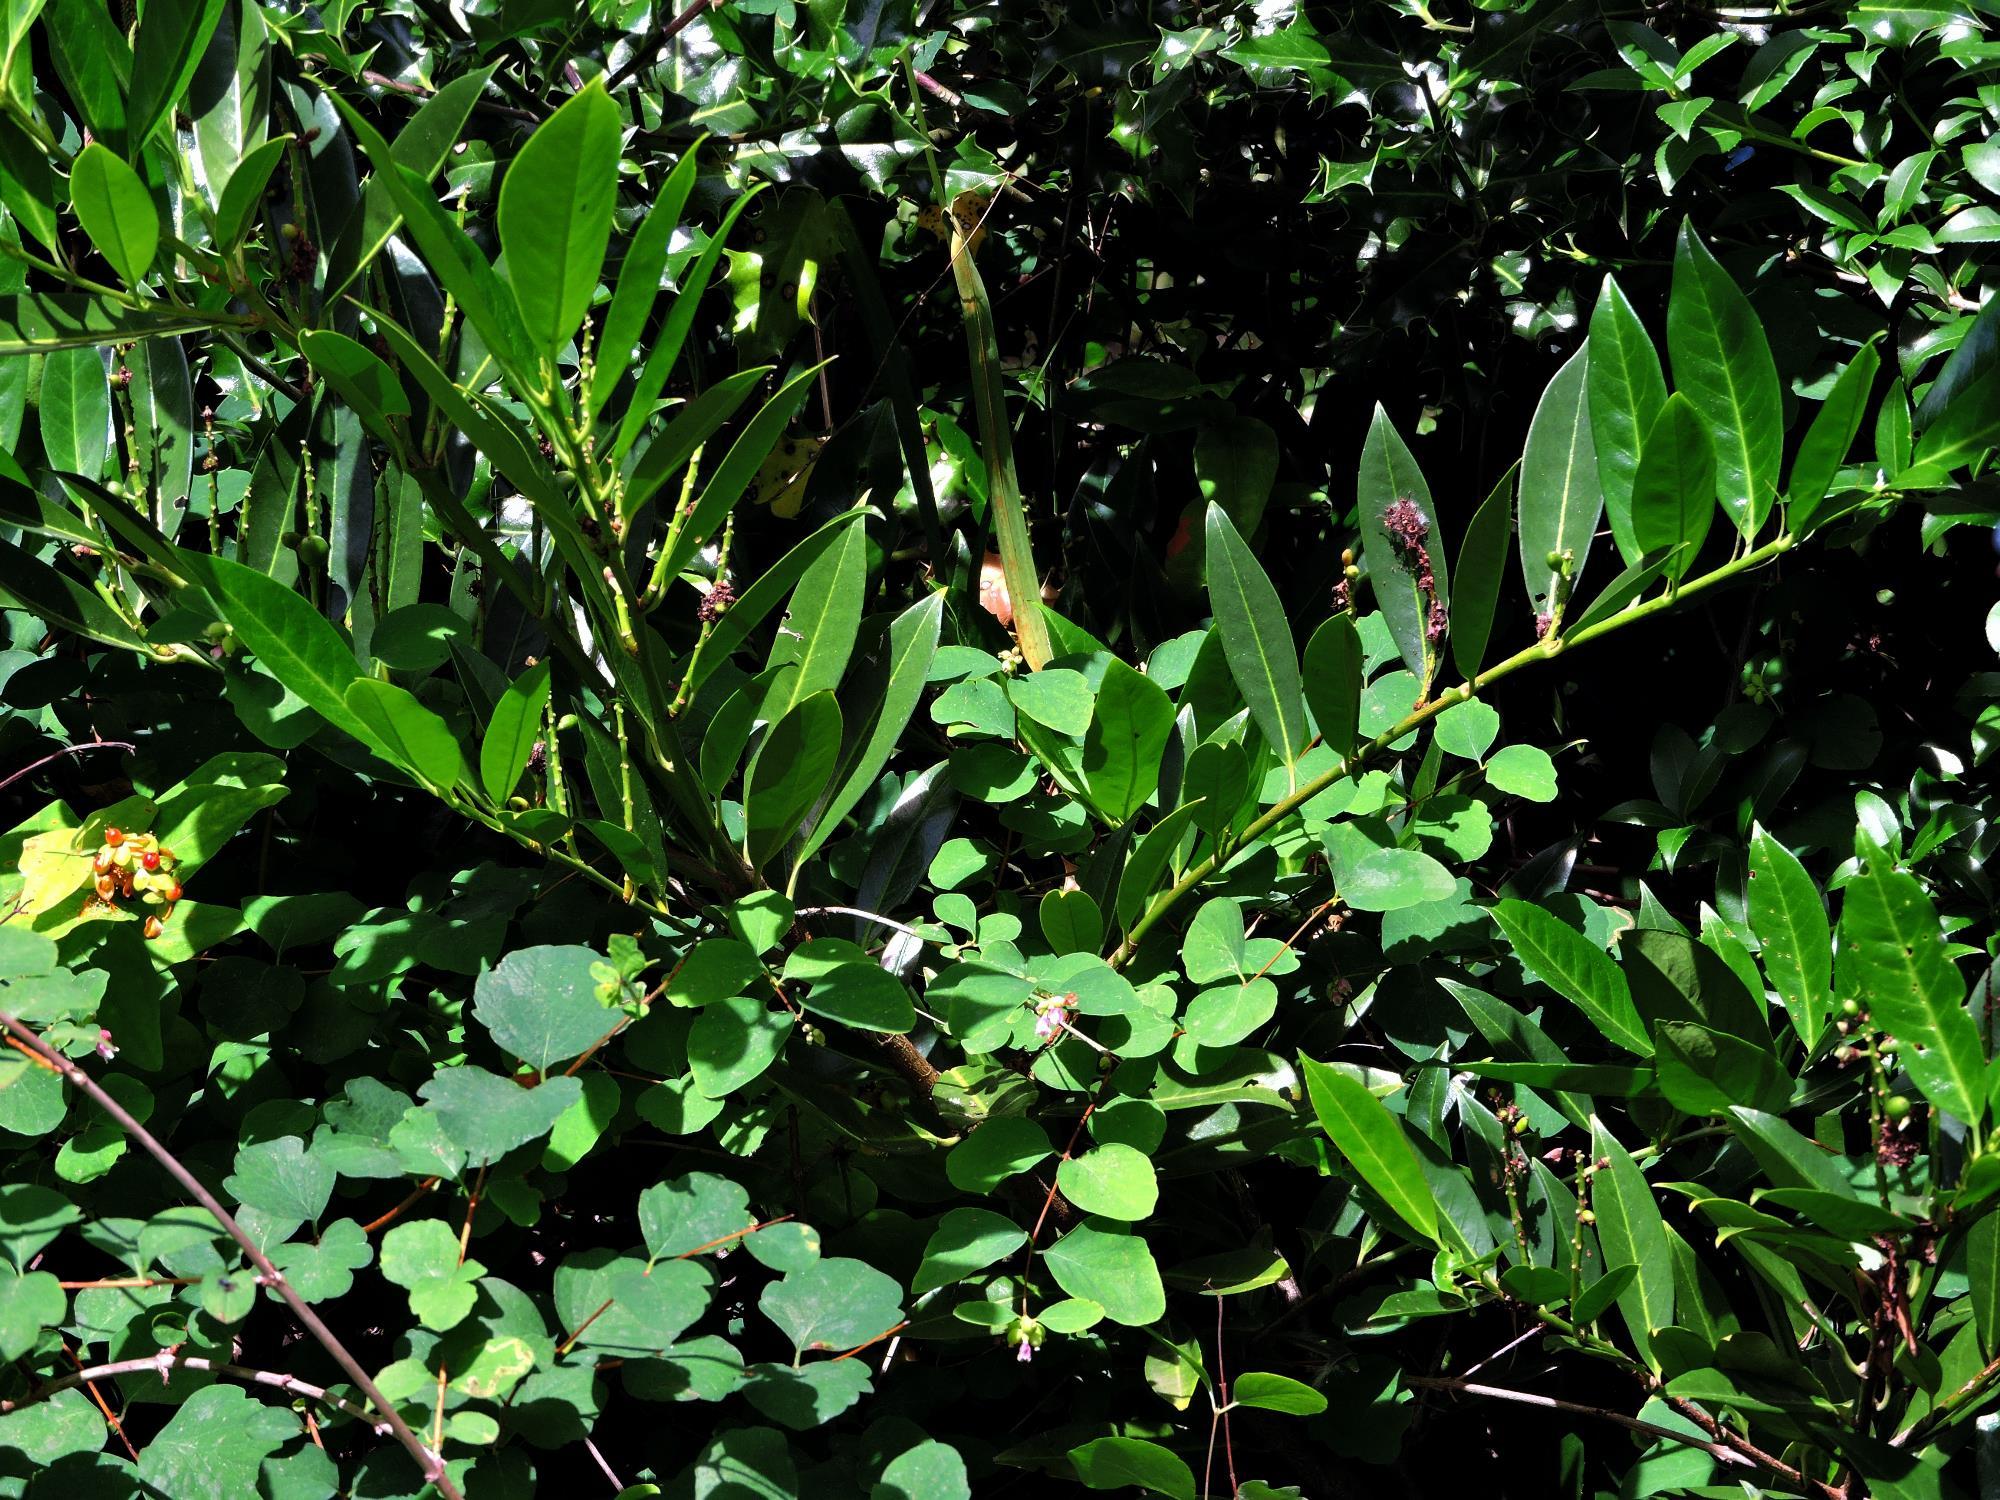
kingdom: Plantae
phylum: Tracheophyta
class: Magnoliopsida
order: Rosales
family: Rosaceae
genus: Prunus
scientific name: Prunus laurocerasus
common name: Cherry laurel
